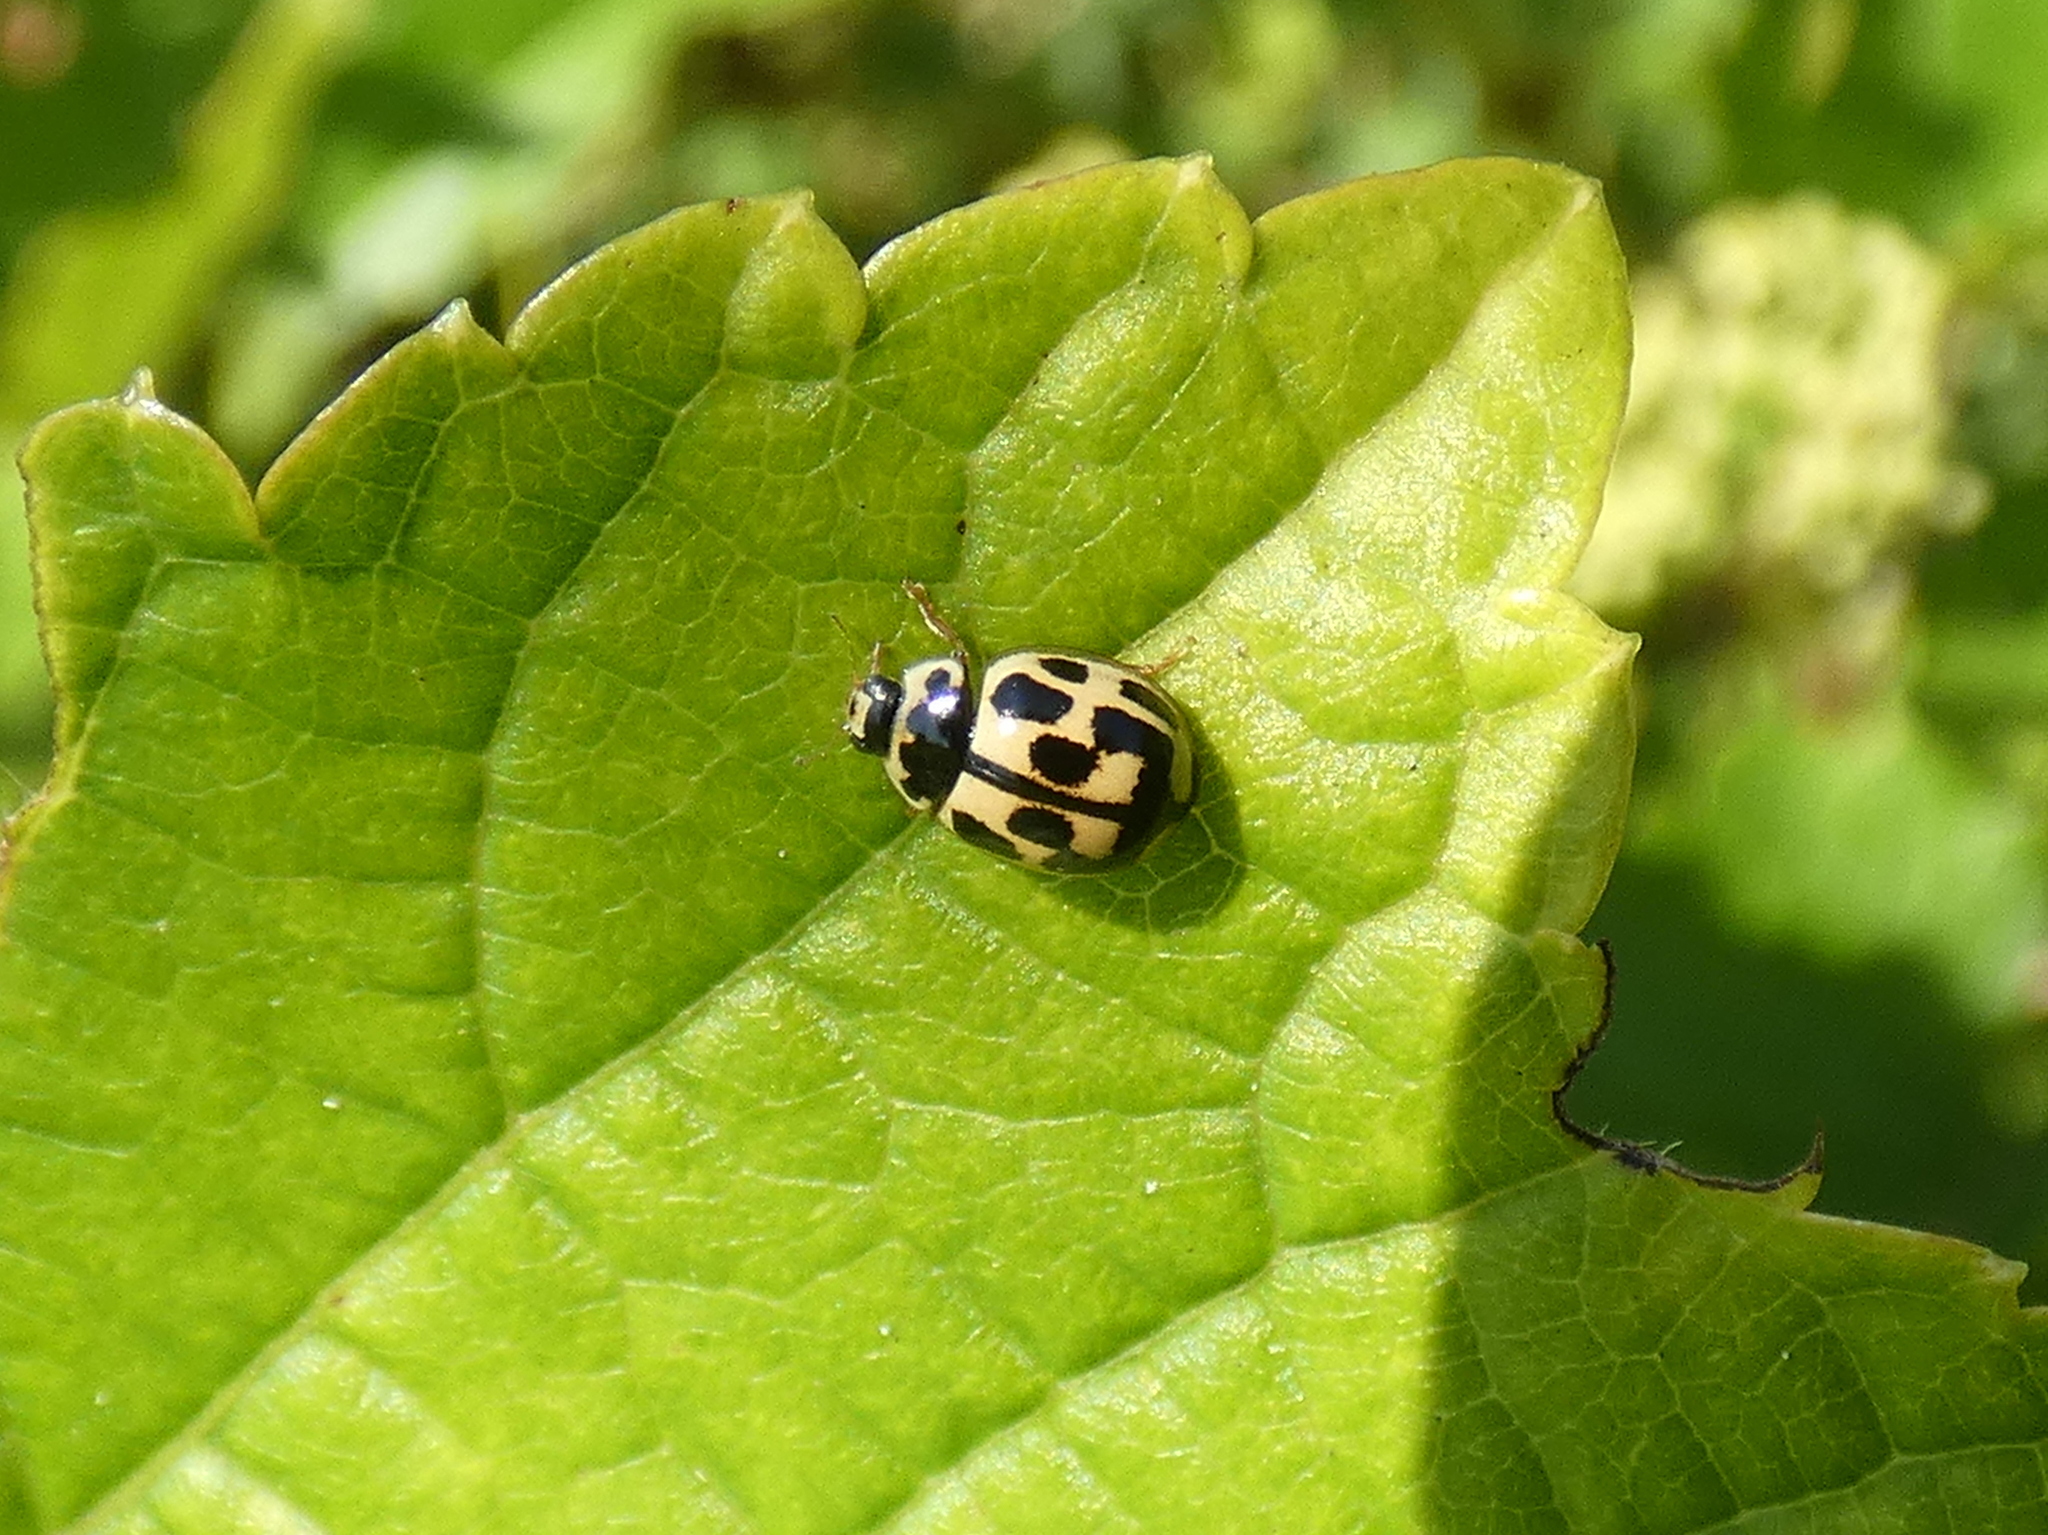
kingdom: Animalia
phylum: Arthropoda
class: Insecta
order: Coleoptera
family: Coccinellidae
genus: Propylaea
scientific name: Propylaea quatuordecimpunctata
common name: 14-spotted ladybird beetle
